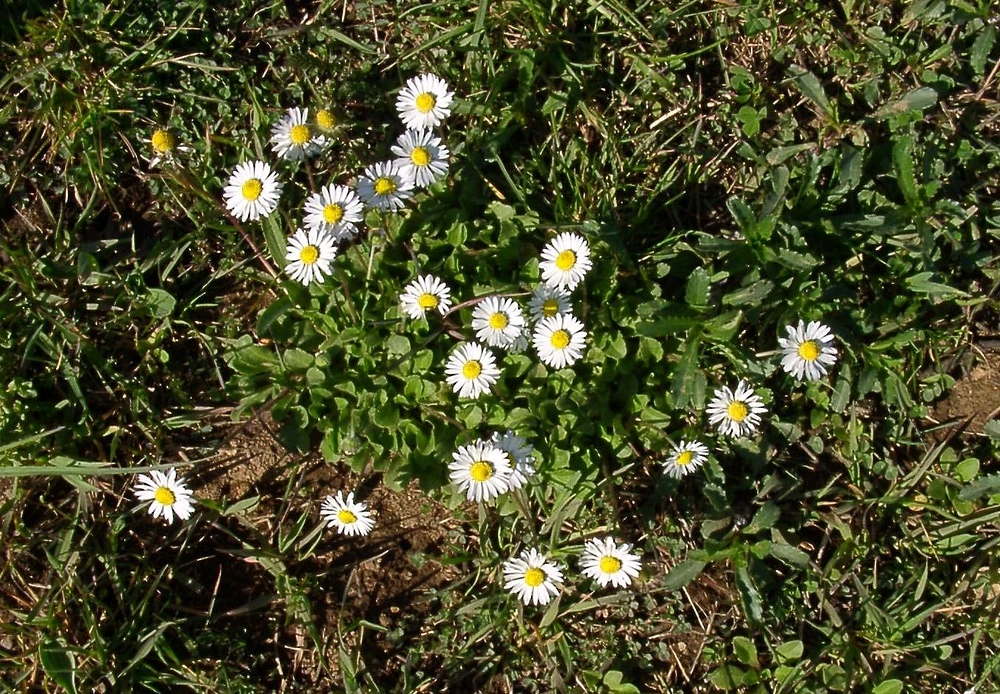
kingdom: Plantae
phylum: Tracheophyta
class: Magnoliopsida
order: Asterales
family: Asteraceae
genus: Bellis
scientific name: Bellis perennis
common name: Lawndaisy
